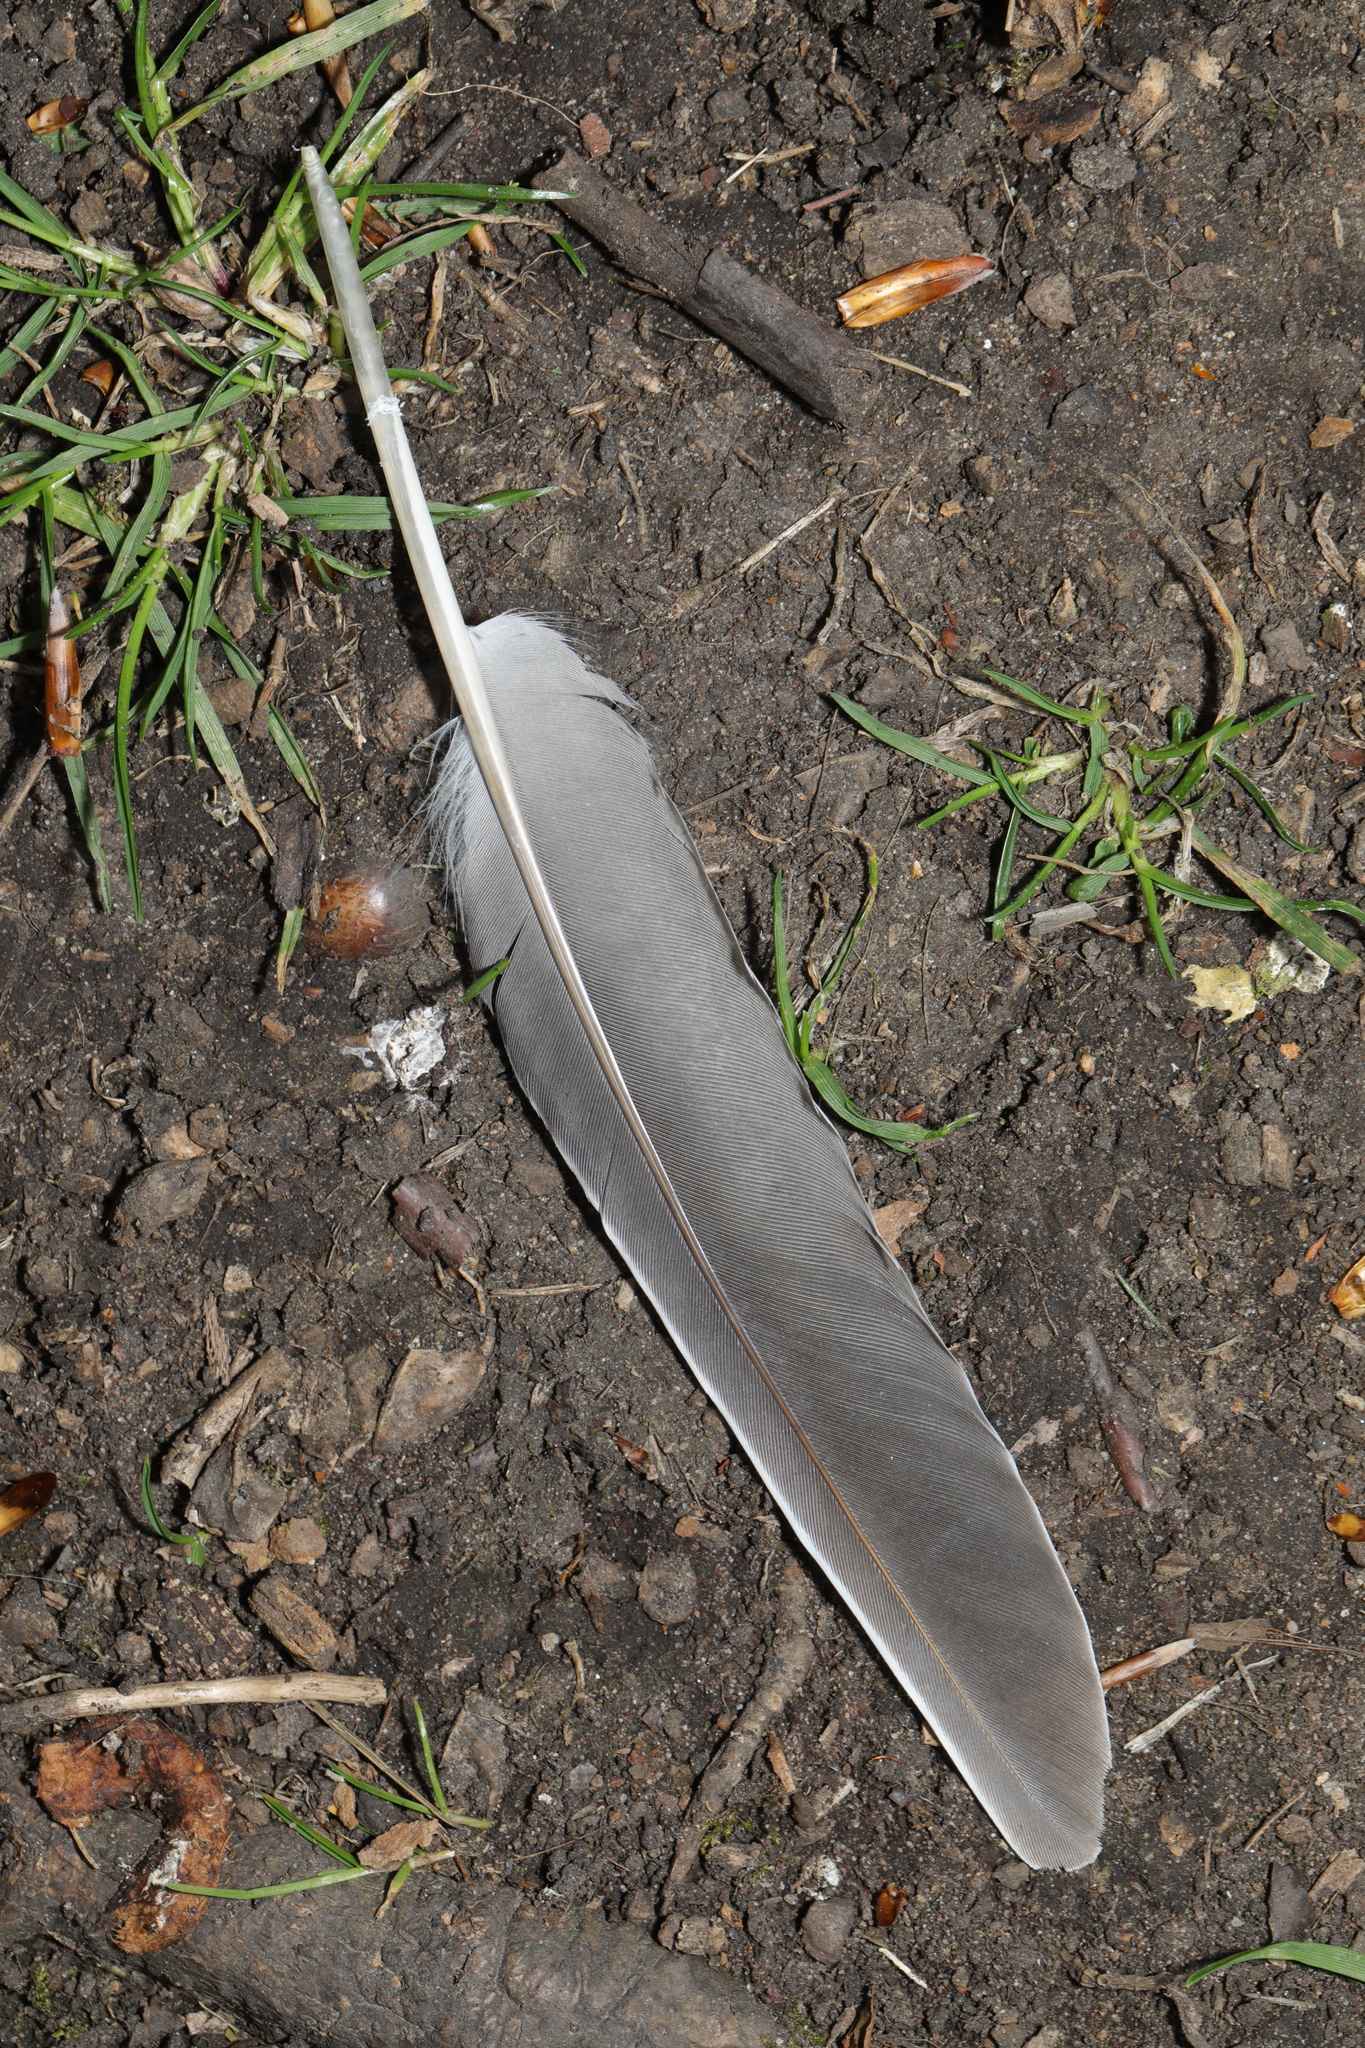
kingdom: Animalia
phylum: Chordata
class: Aves
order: Columbiformes
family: Columbidae
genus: Columba
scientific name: Columba palumbus
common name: Common wood pigeon
